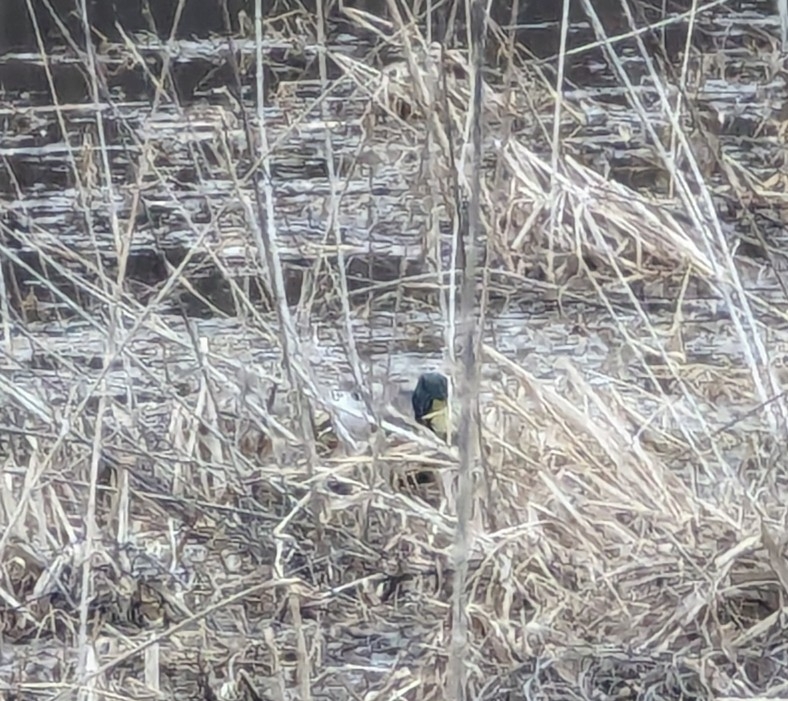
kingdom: Animalia
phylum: Chordata
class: Aves
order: Anseriformes
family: Anatidae
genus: Anas
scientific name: Anas platyrhynchos
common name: Mallard
